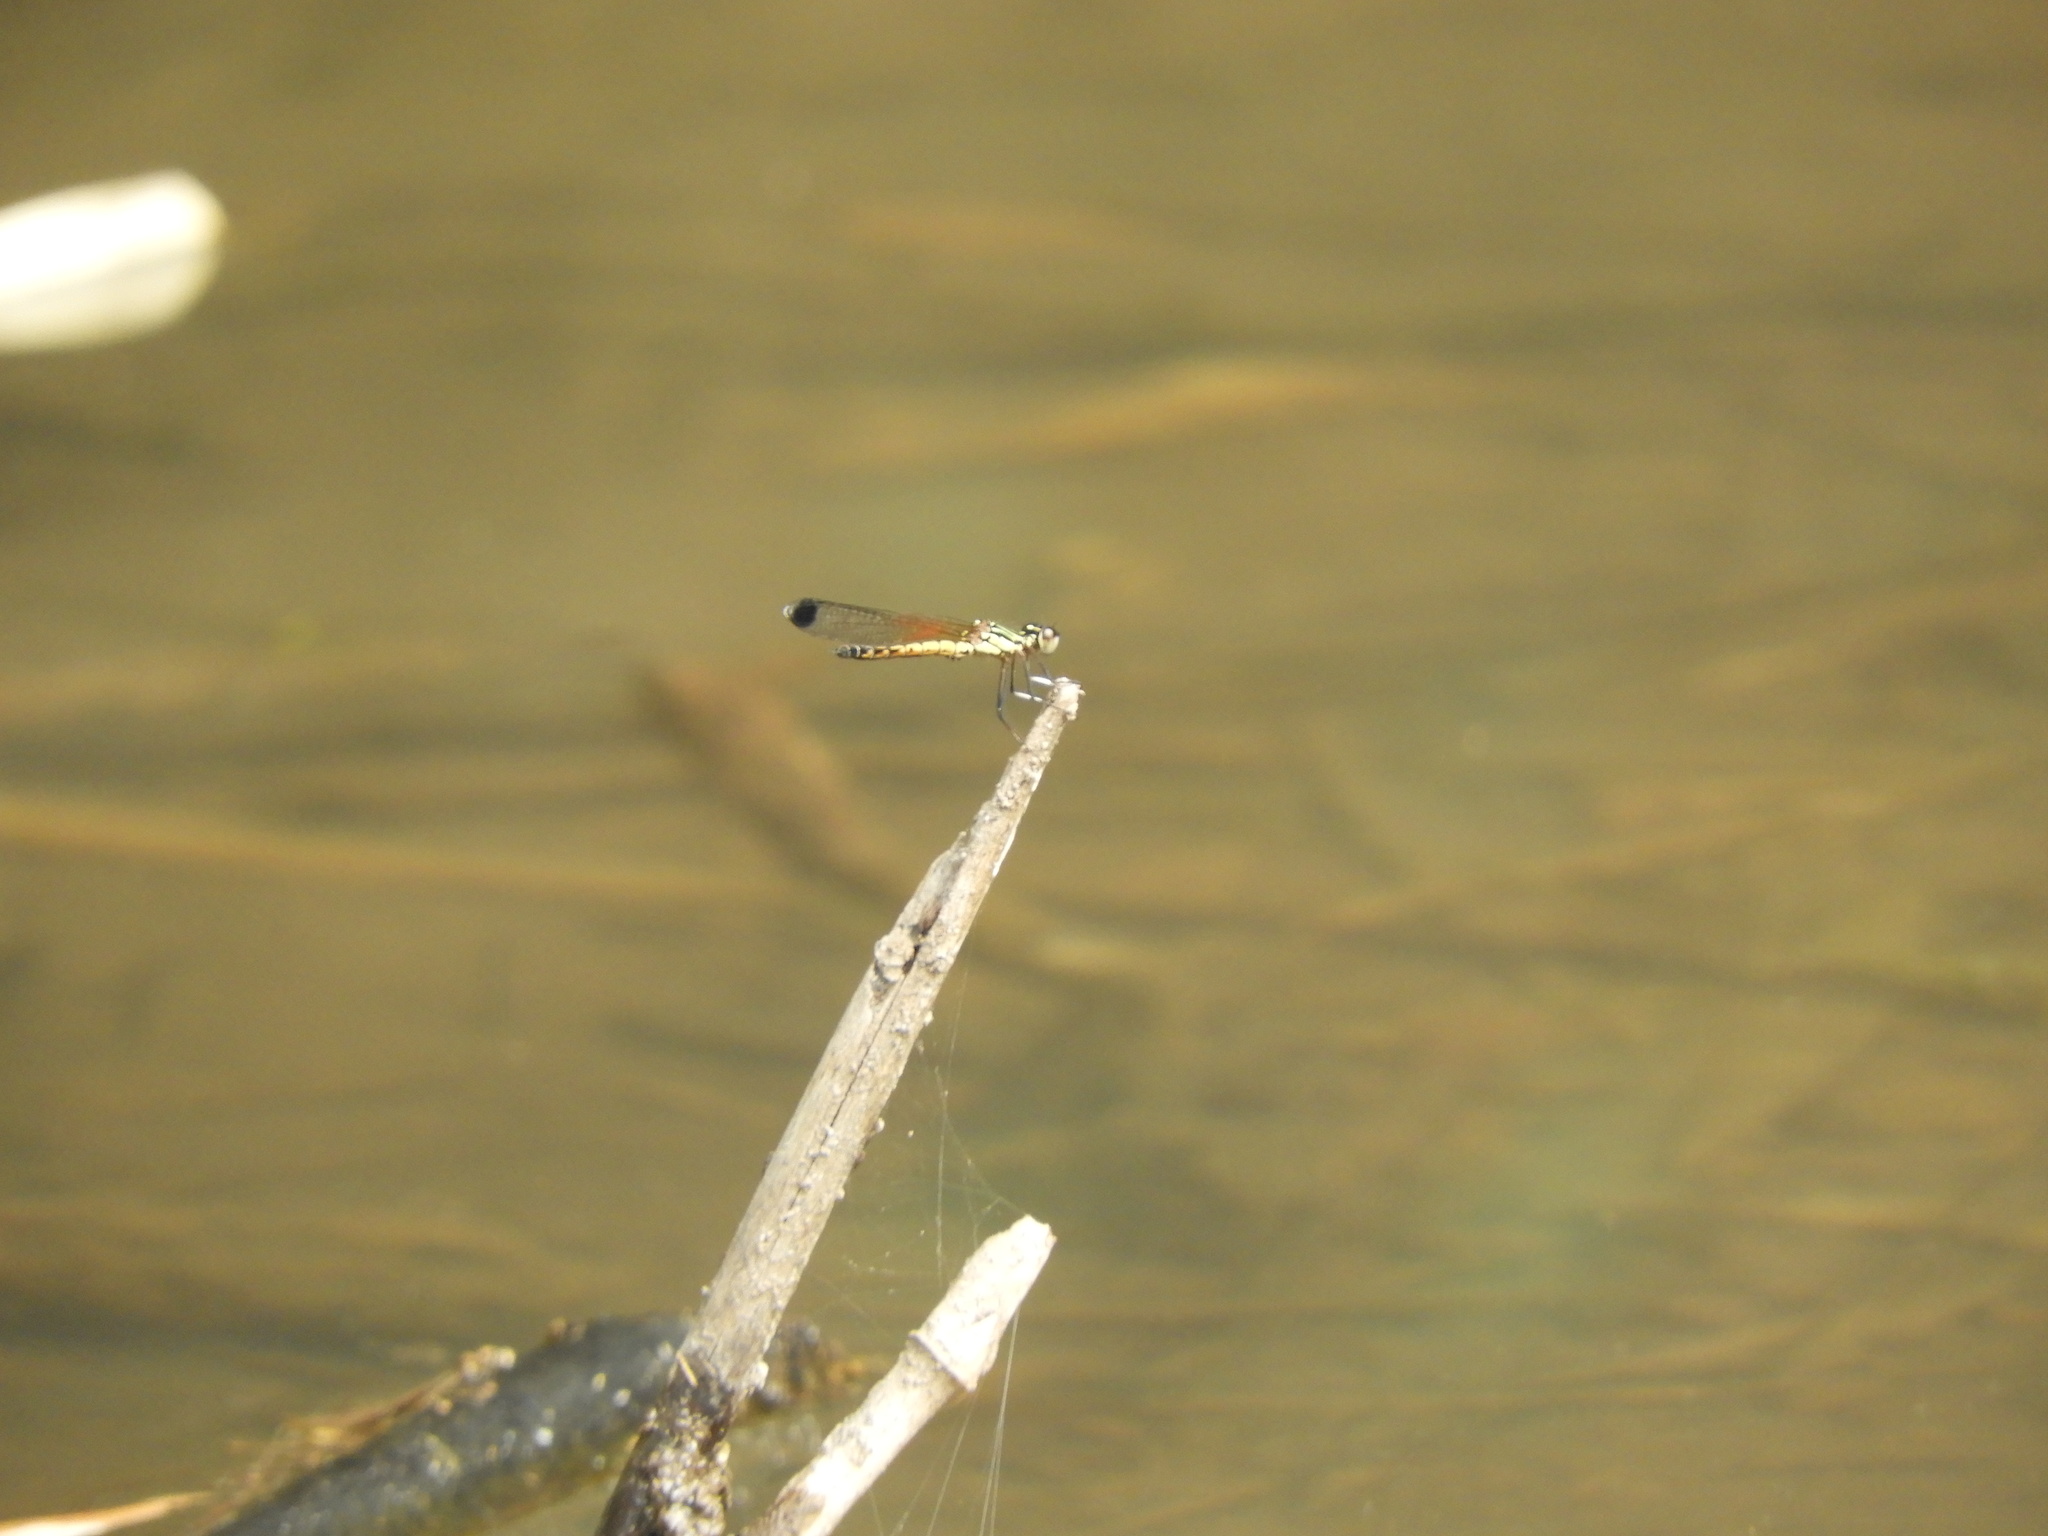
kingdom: Animalia
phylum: Arthropoda
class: Insecta
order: Odonata
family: Chlorocyphidae
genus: Libellago
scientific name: Libellago indica
